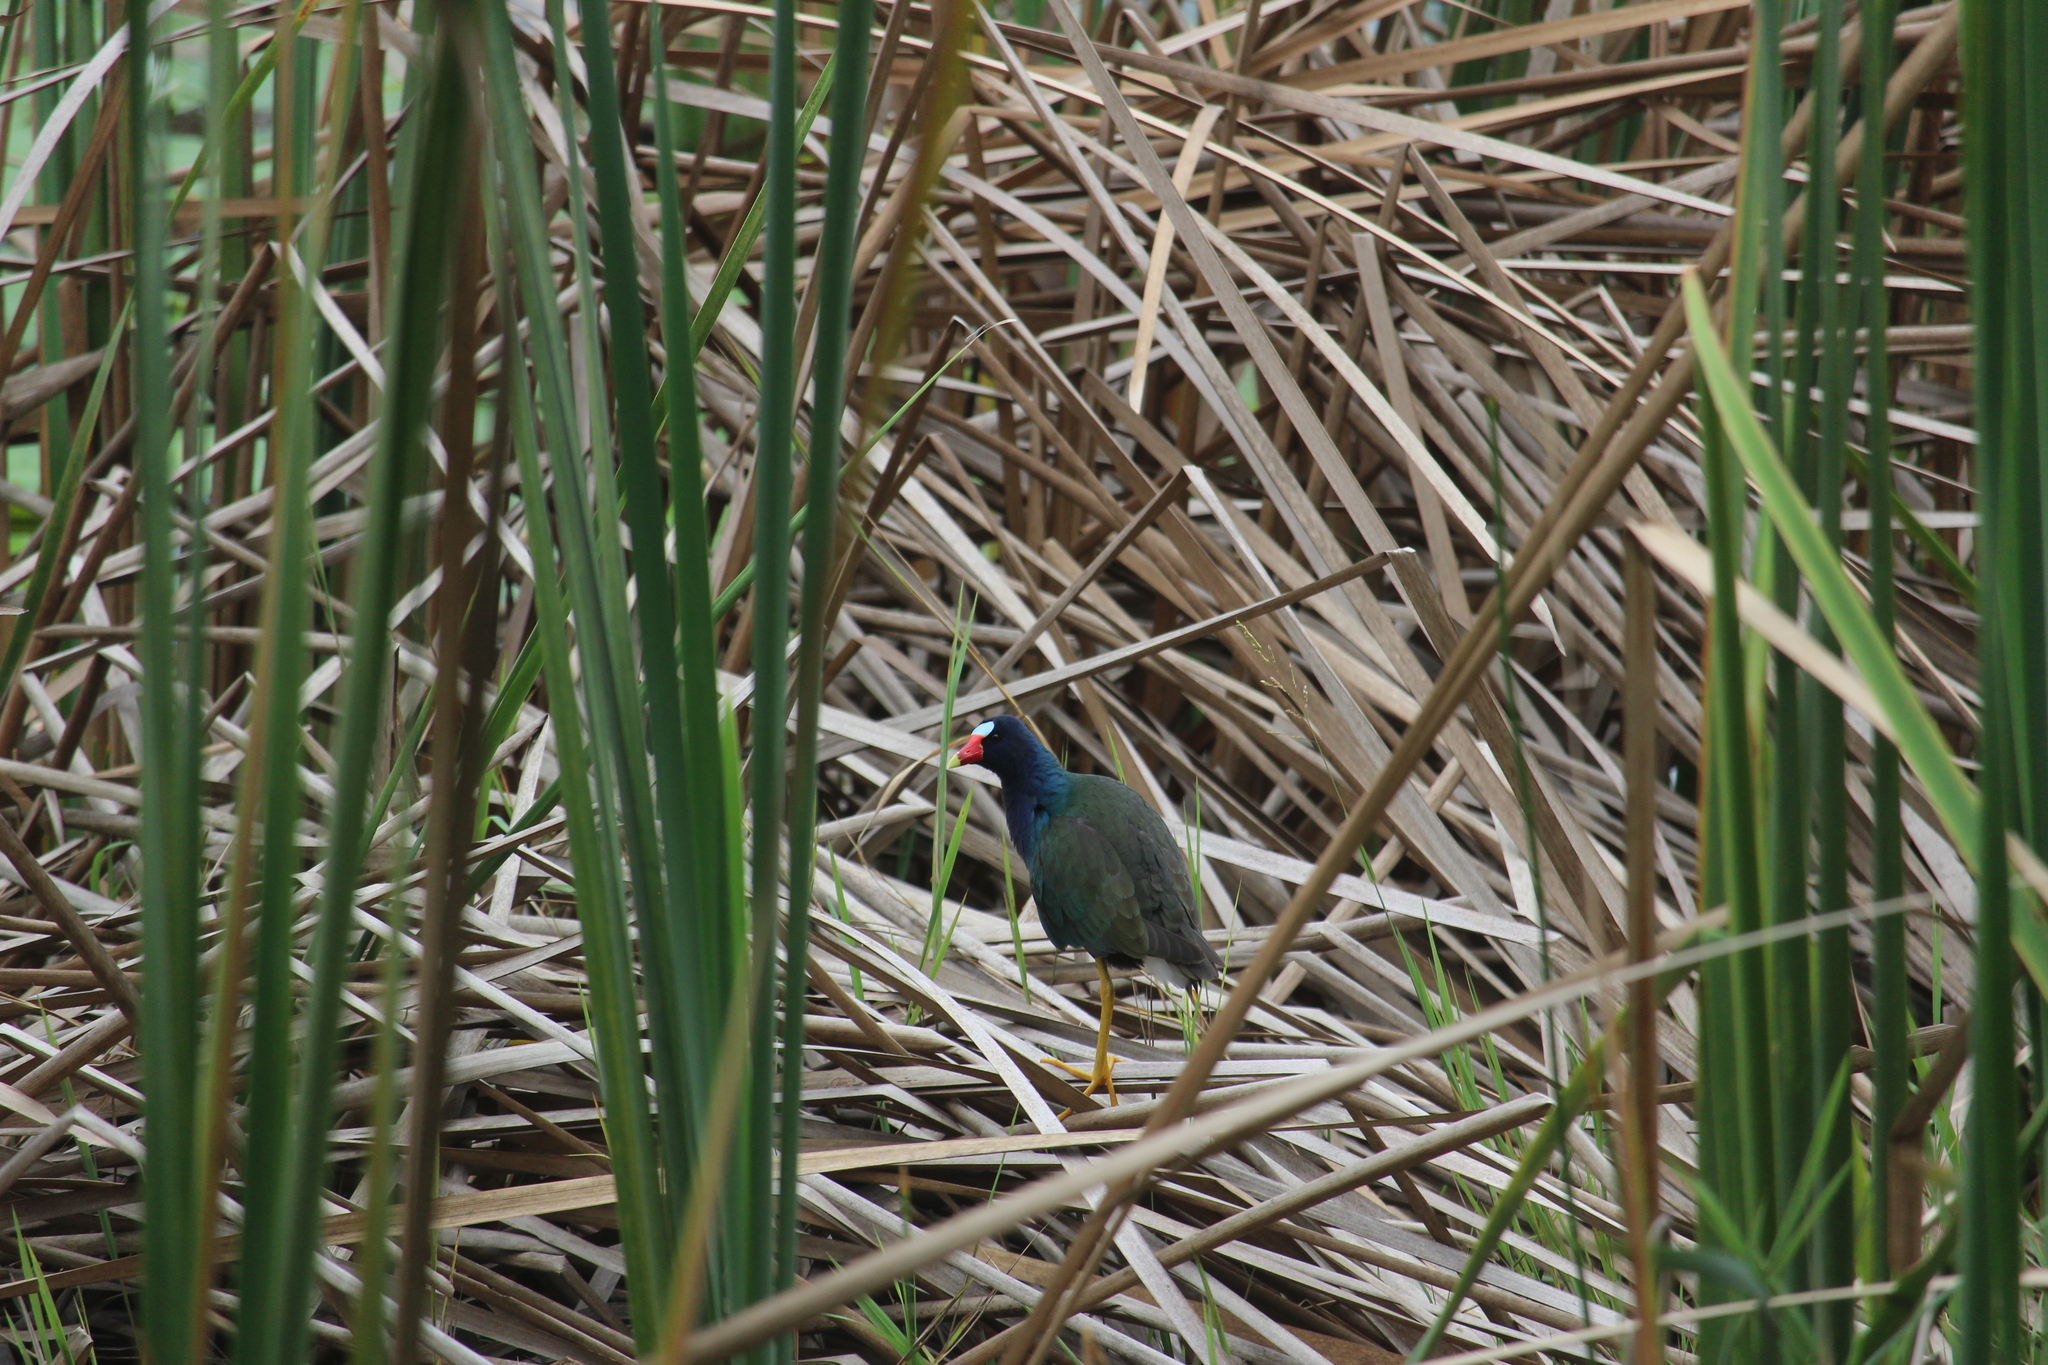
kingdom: Animalia
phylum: Chordata
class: Aves
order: Gruiformes
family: Rallidae
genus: Porphyrio
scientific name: Porphyrio martinica
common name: Purple gallinule
